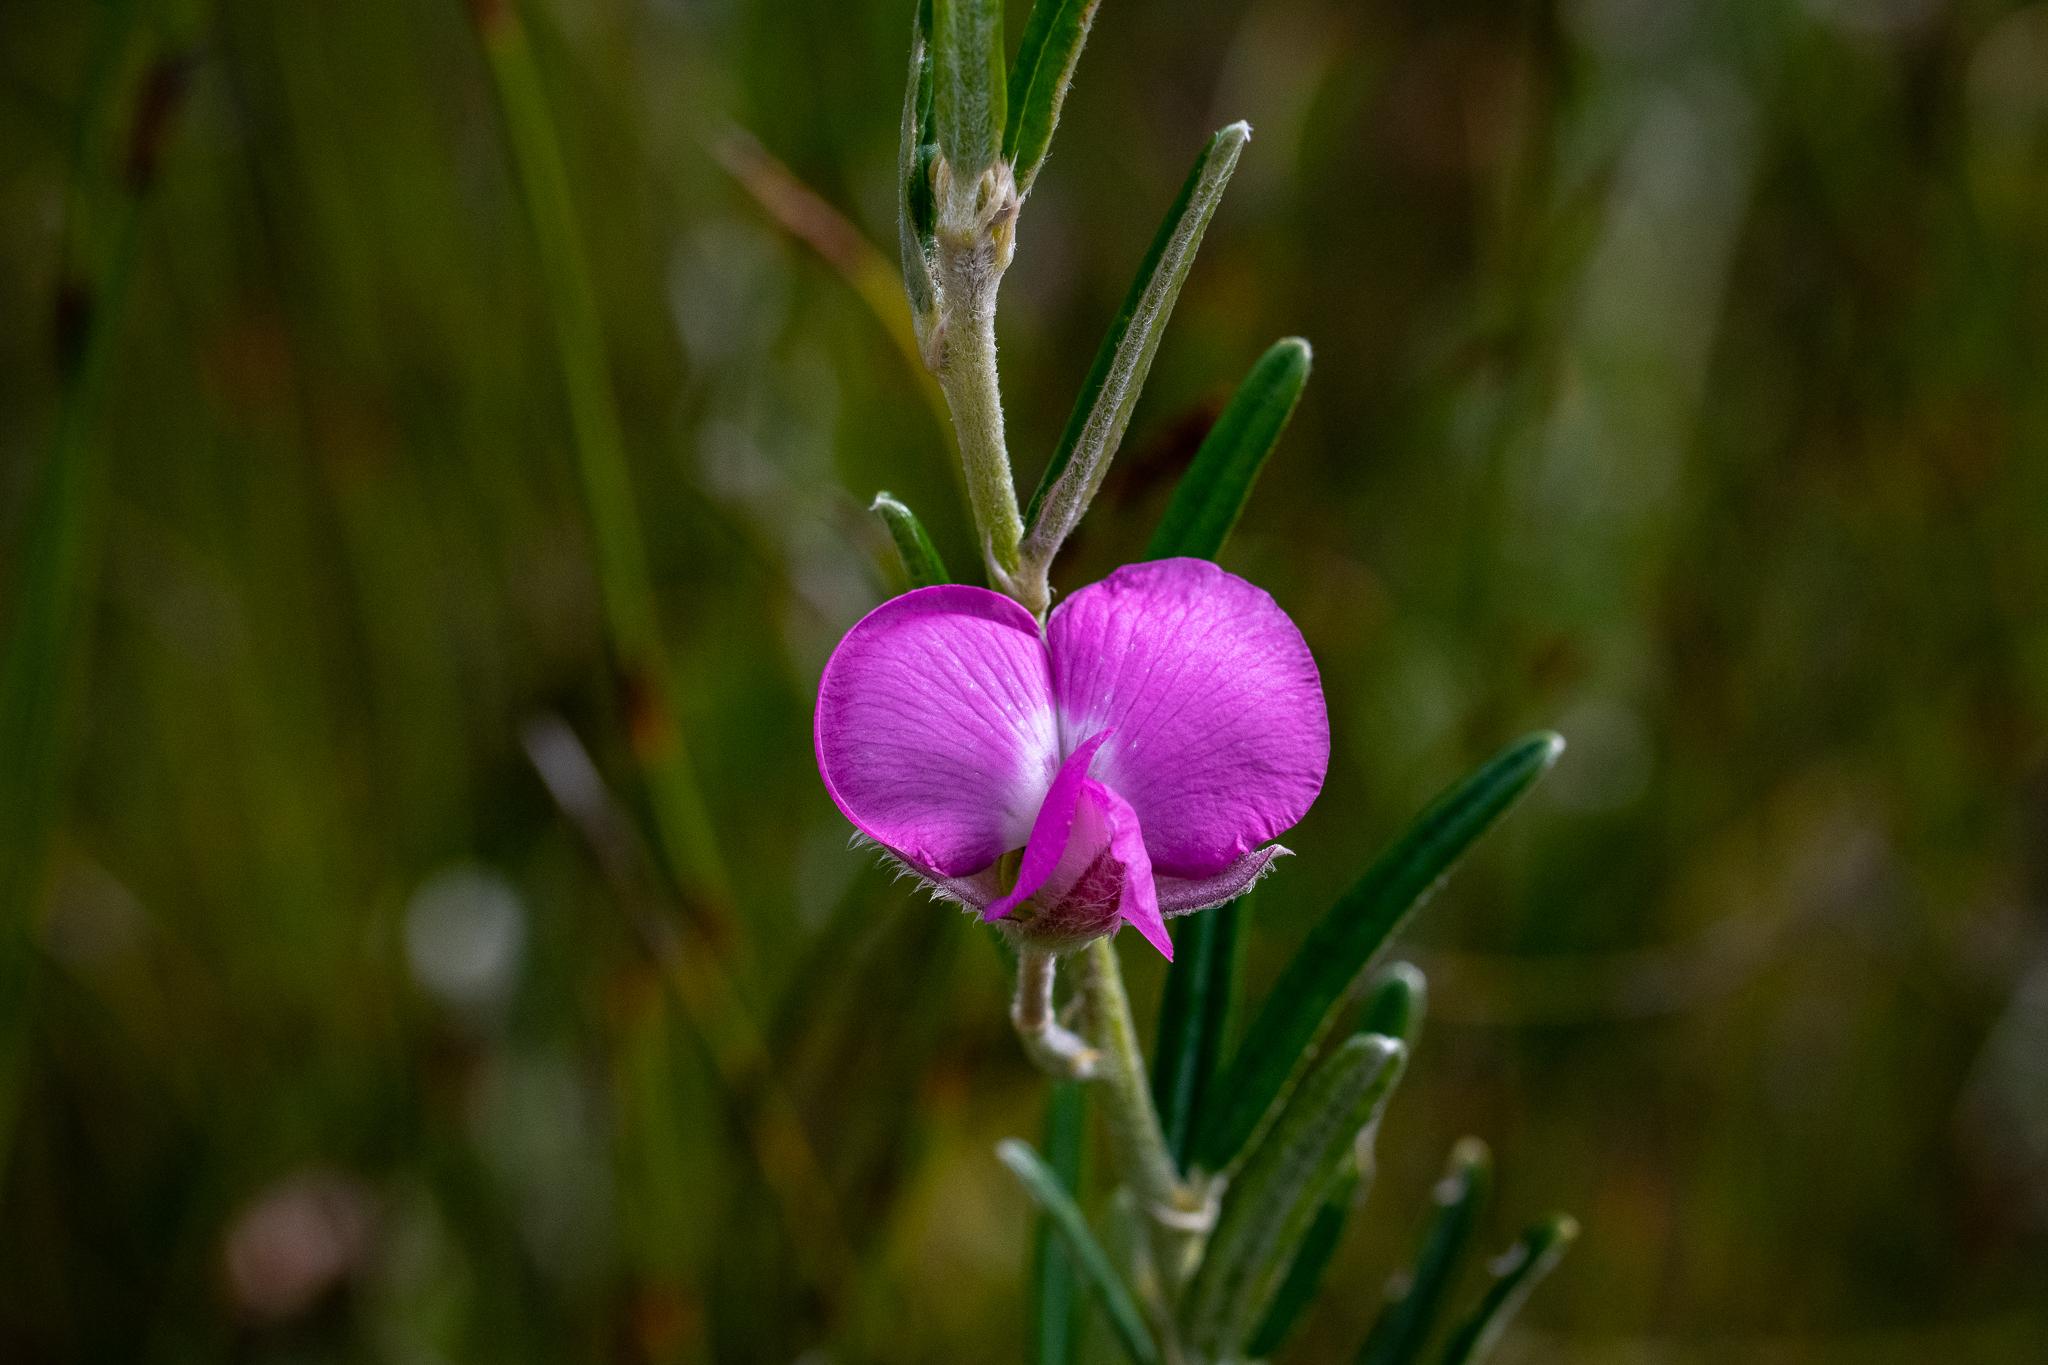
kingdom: Plantae
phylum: Tracheophyta
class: Magnoliopsida
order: Fabales
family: Fabaceae
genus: Podalyria
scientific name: Podalyria oleifolia
